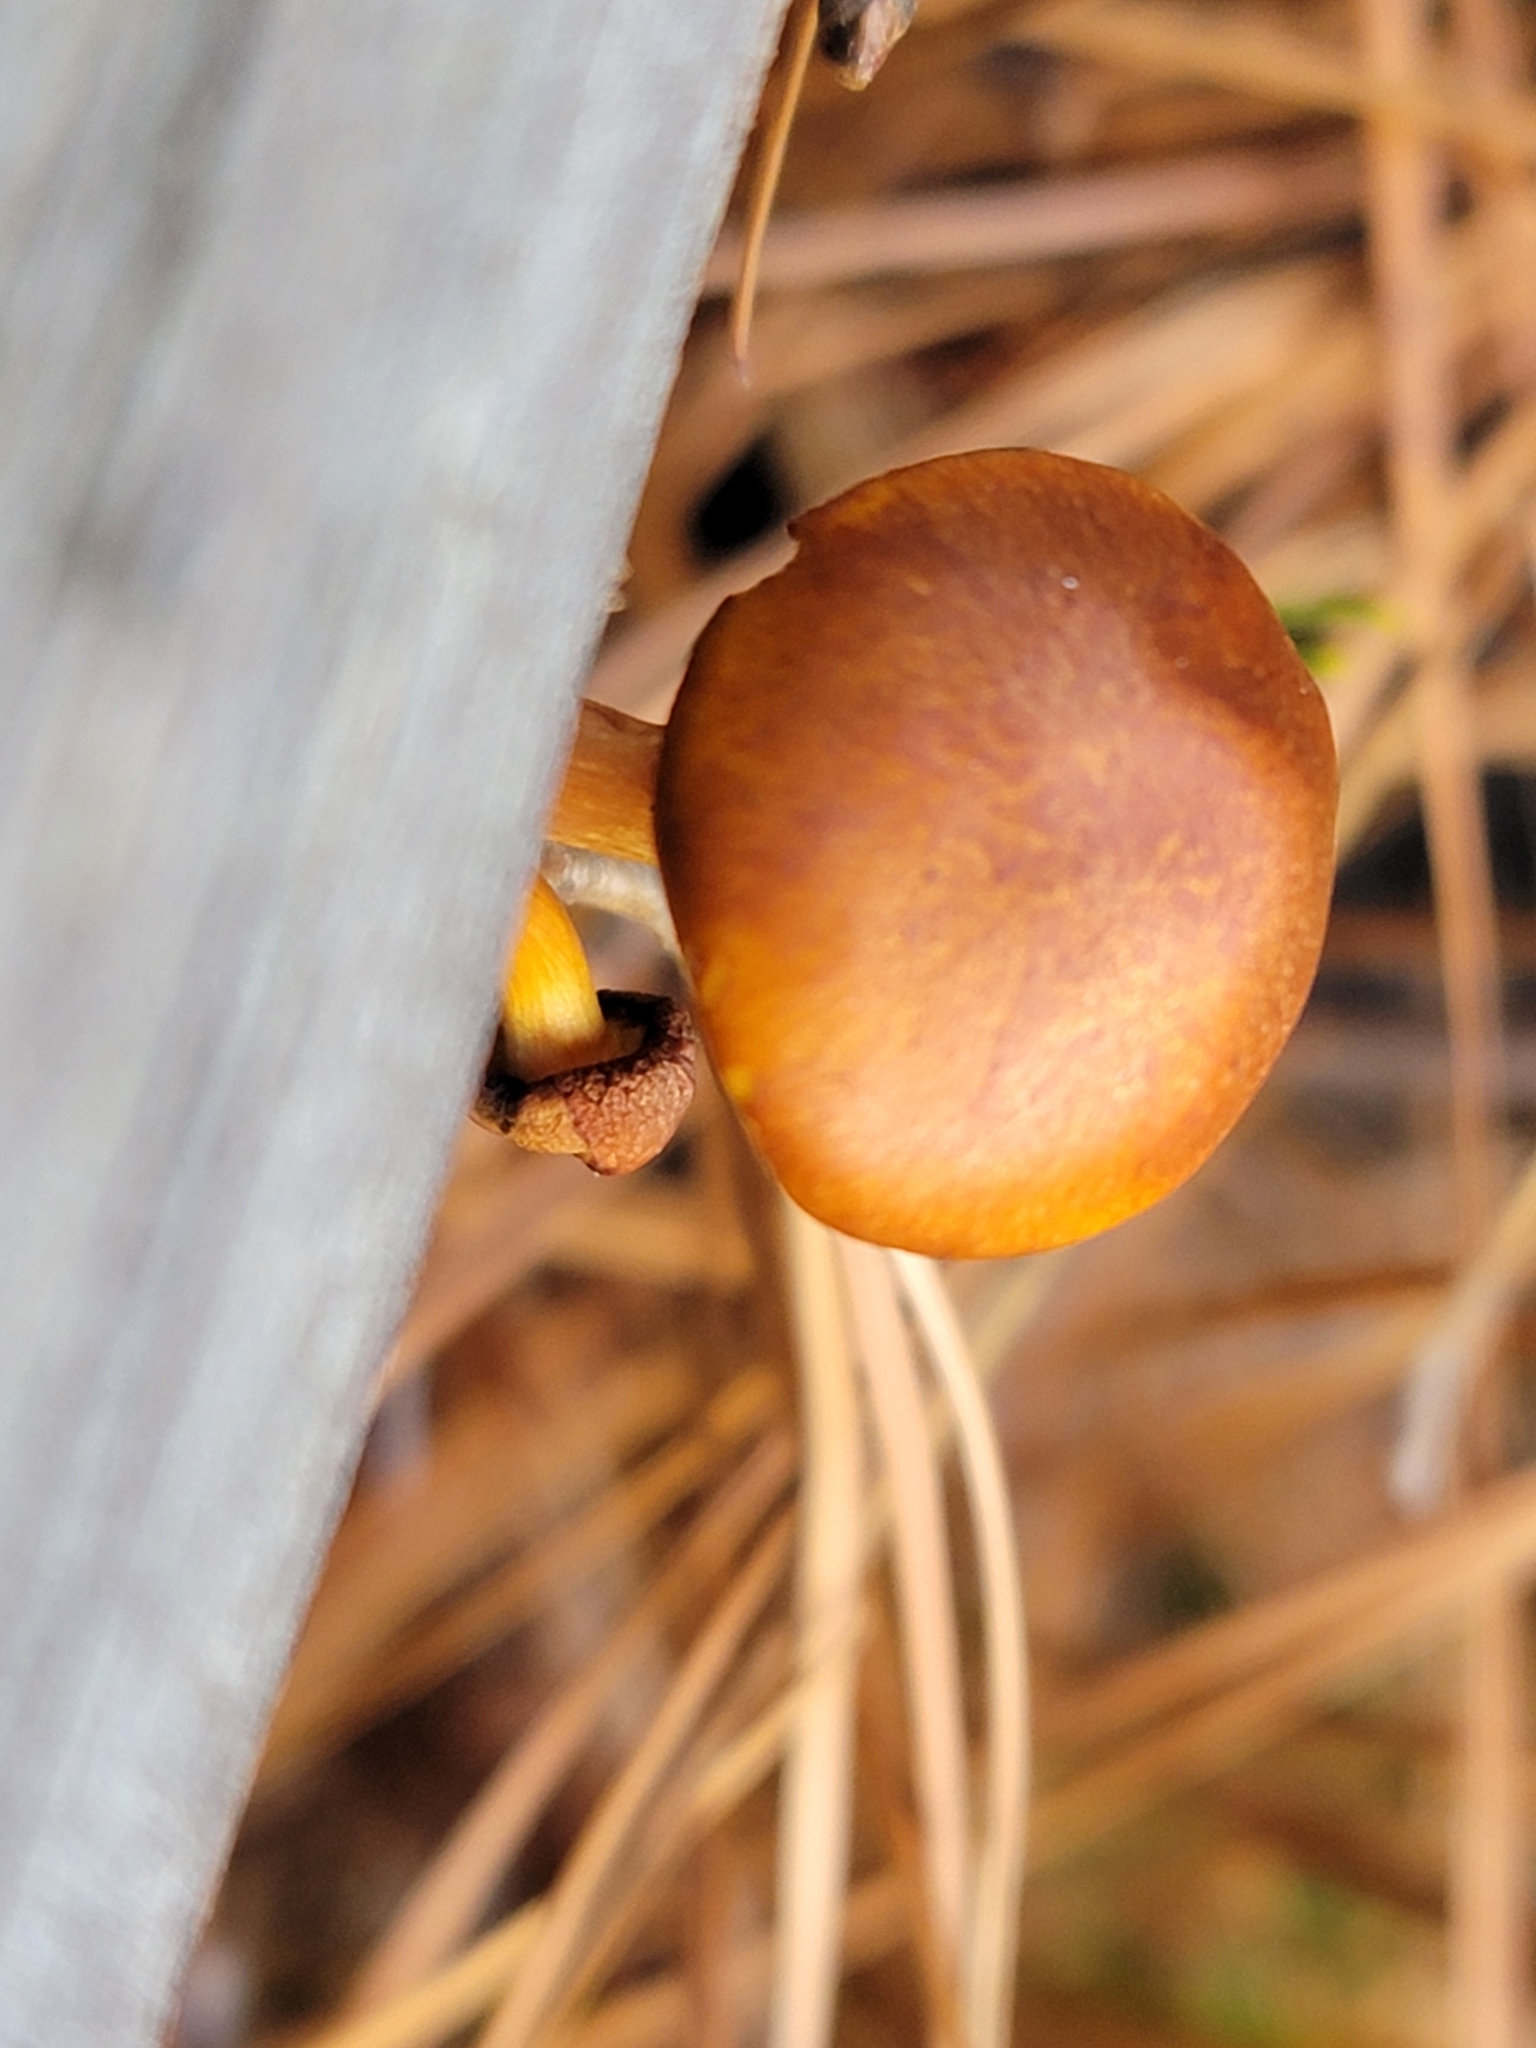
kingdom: Fungi
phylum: Basidiomycota
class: Agaricomycetes
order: Agaricales
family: Hymenogastraceae
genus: Gymnopilus
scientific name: Gymnopilus liquiritiae
